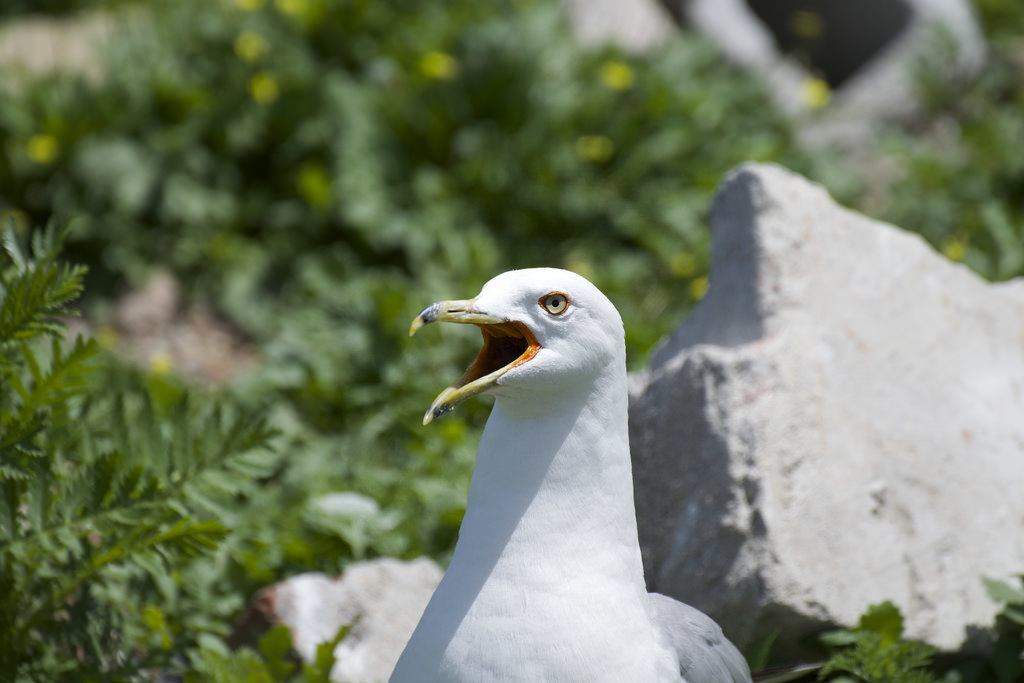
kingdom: Animalia
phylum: Chordata
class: Aves
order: Charadriiformes
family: Laridae
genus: Larus
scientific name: Larus delawarensis
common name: Ring-billed gull
